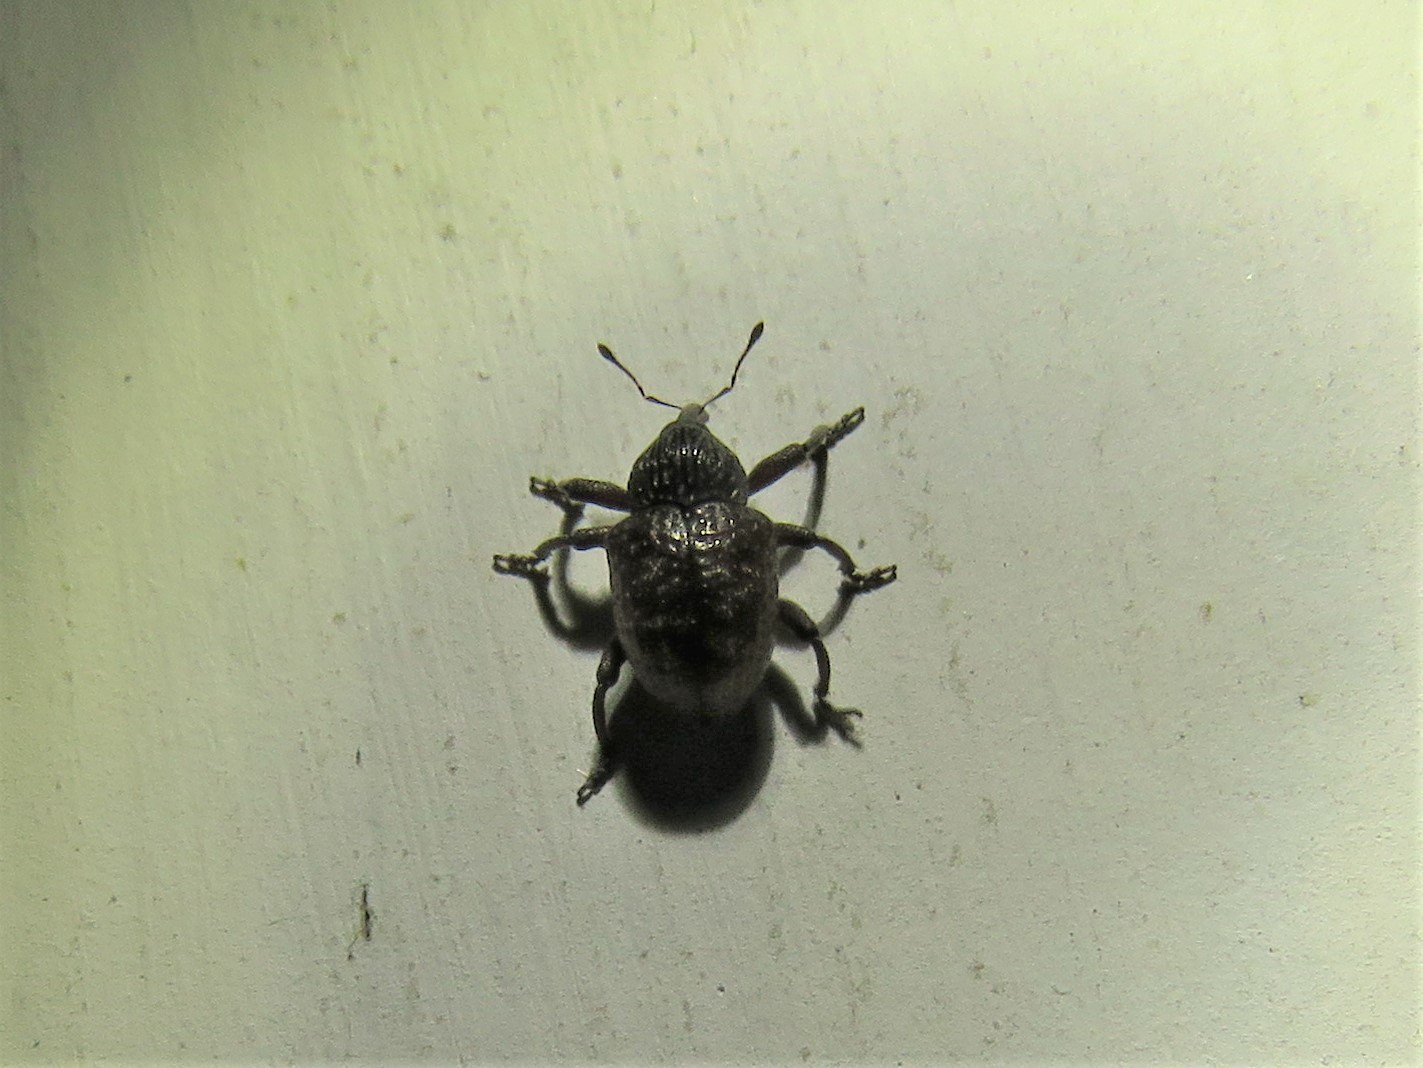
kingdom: Animalia
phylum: Arthropoda
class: Insecta
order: Coleoptera
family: Curculionidae
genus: Chalcodermus
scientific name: Chalcodermus collaris
